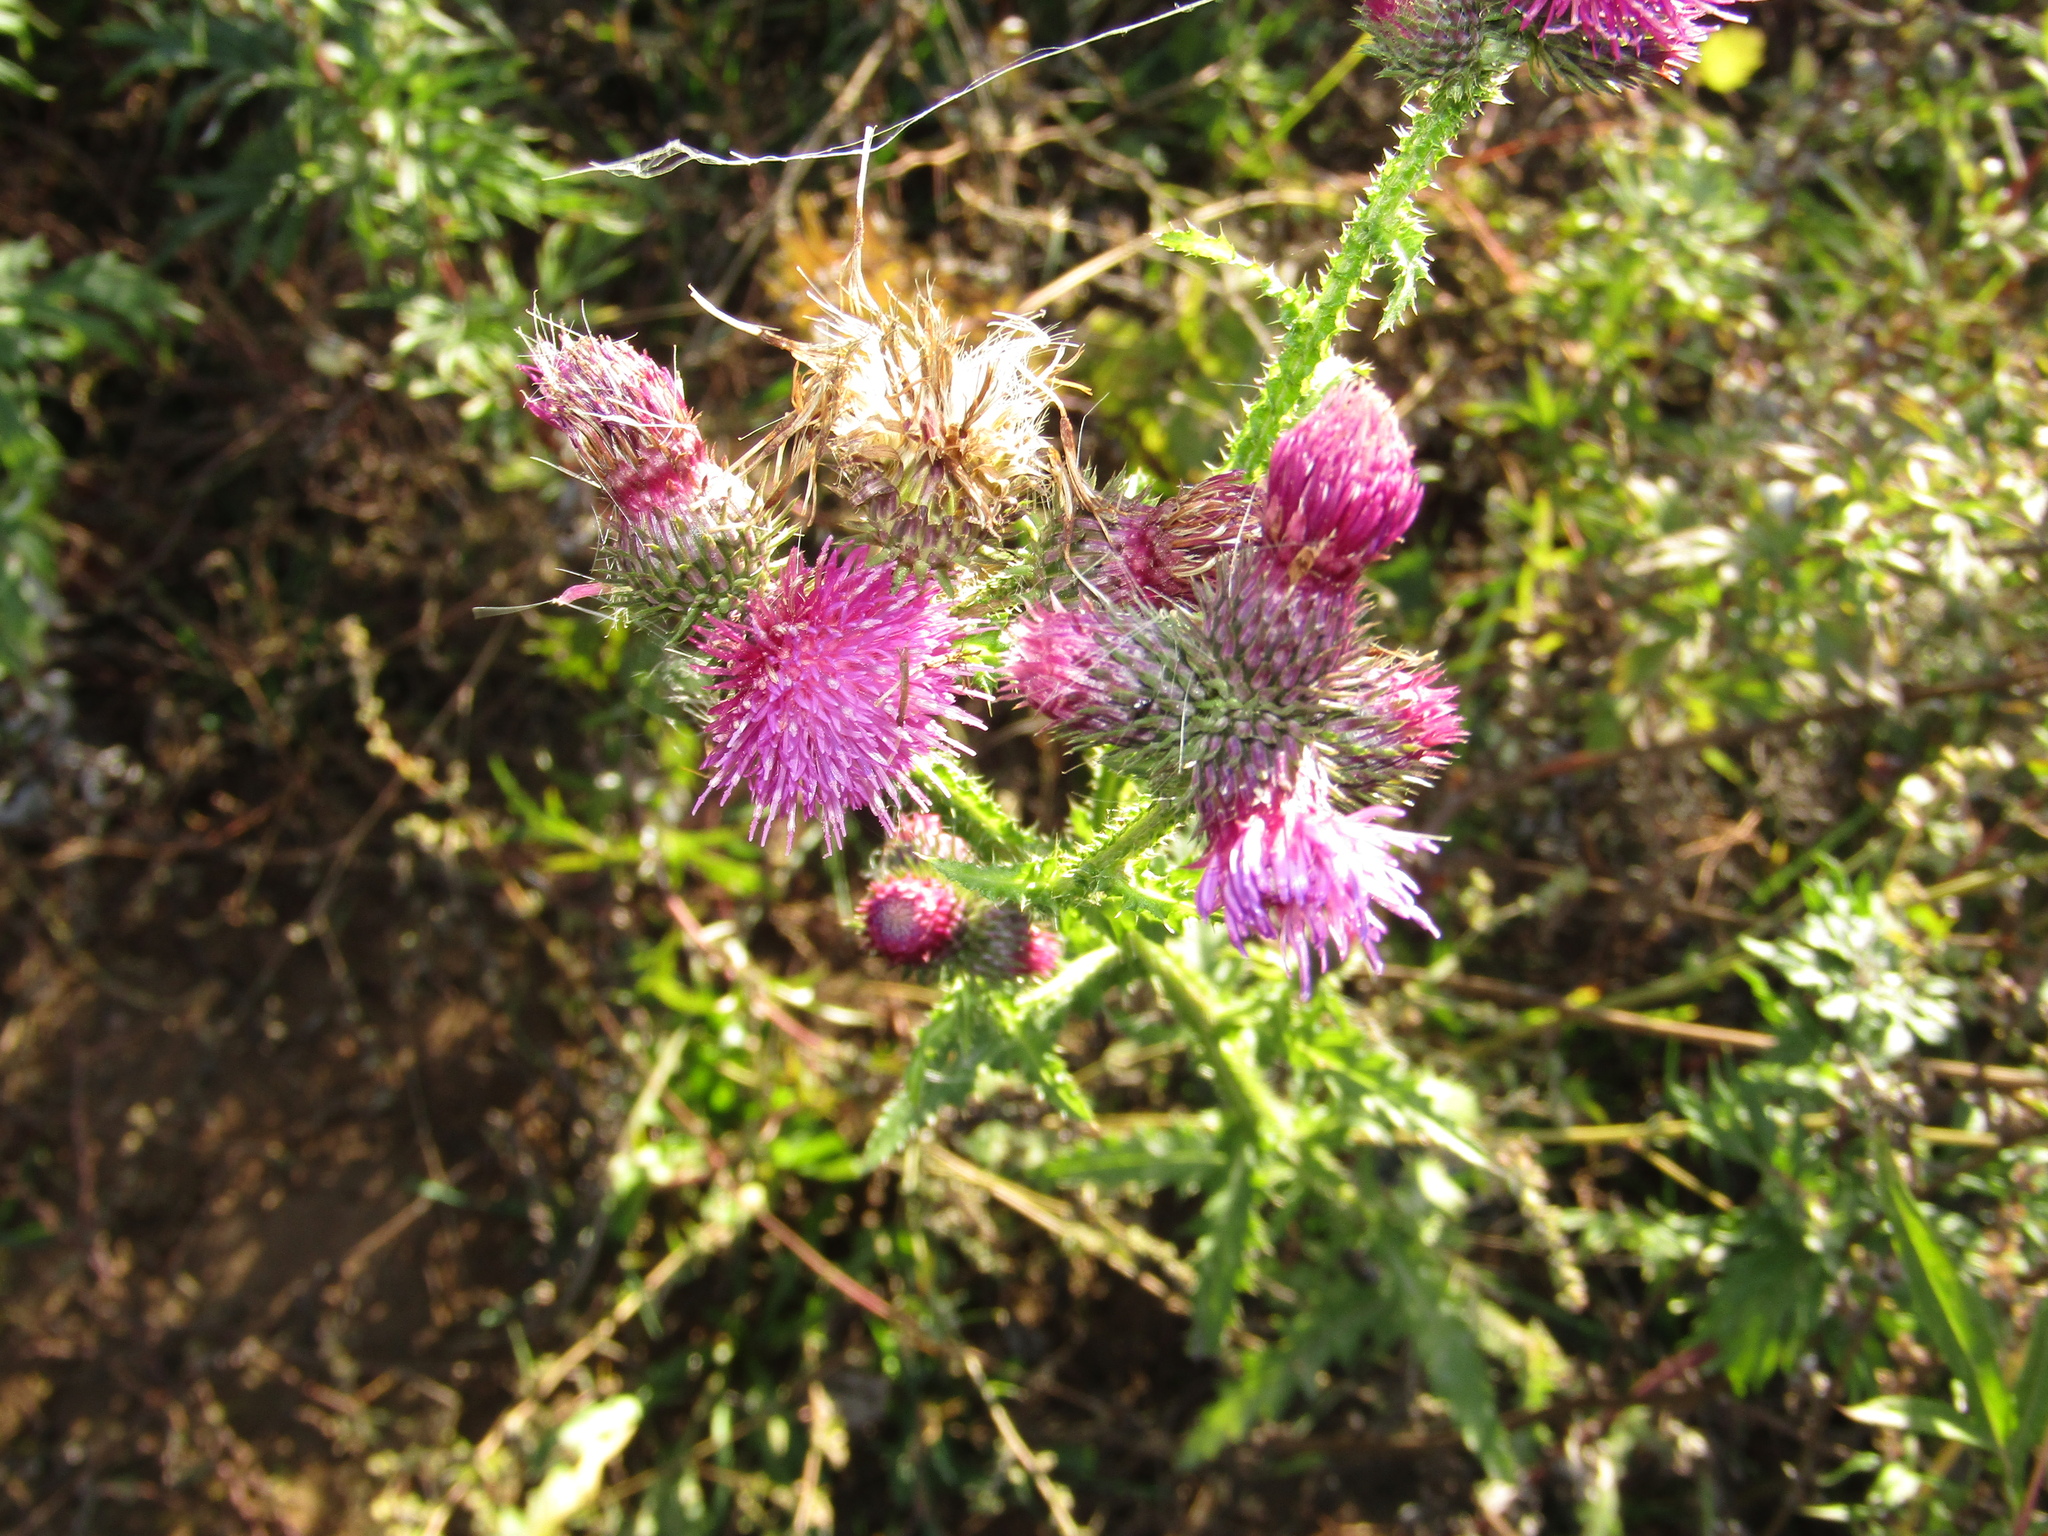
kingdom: Plantae
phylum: Tracheophyta
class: Magnoliopsida
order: Asterales
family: Asteraceae
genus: Carduus
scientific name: Carduus crispus
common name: Welted thistle
